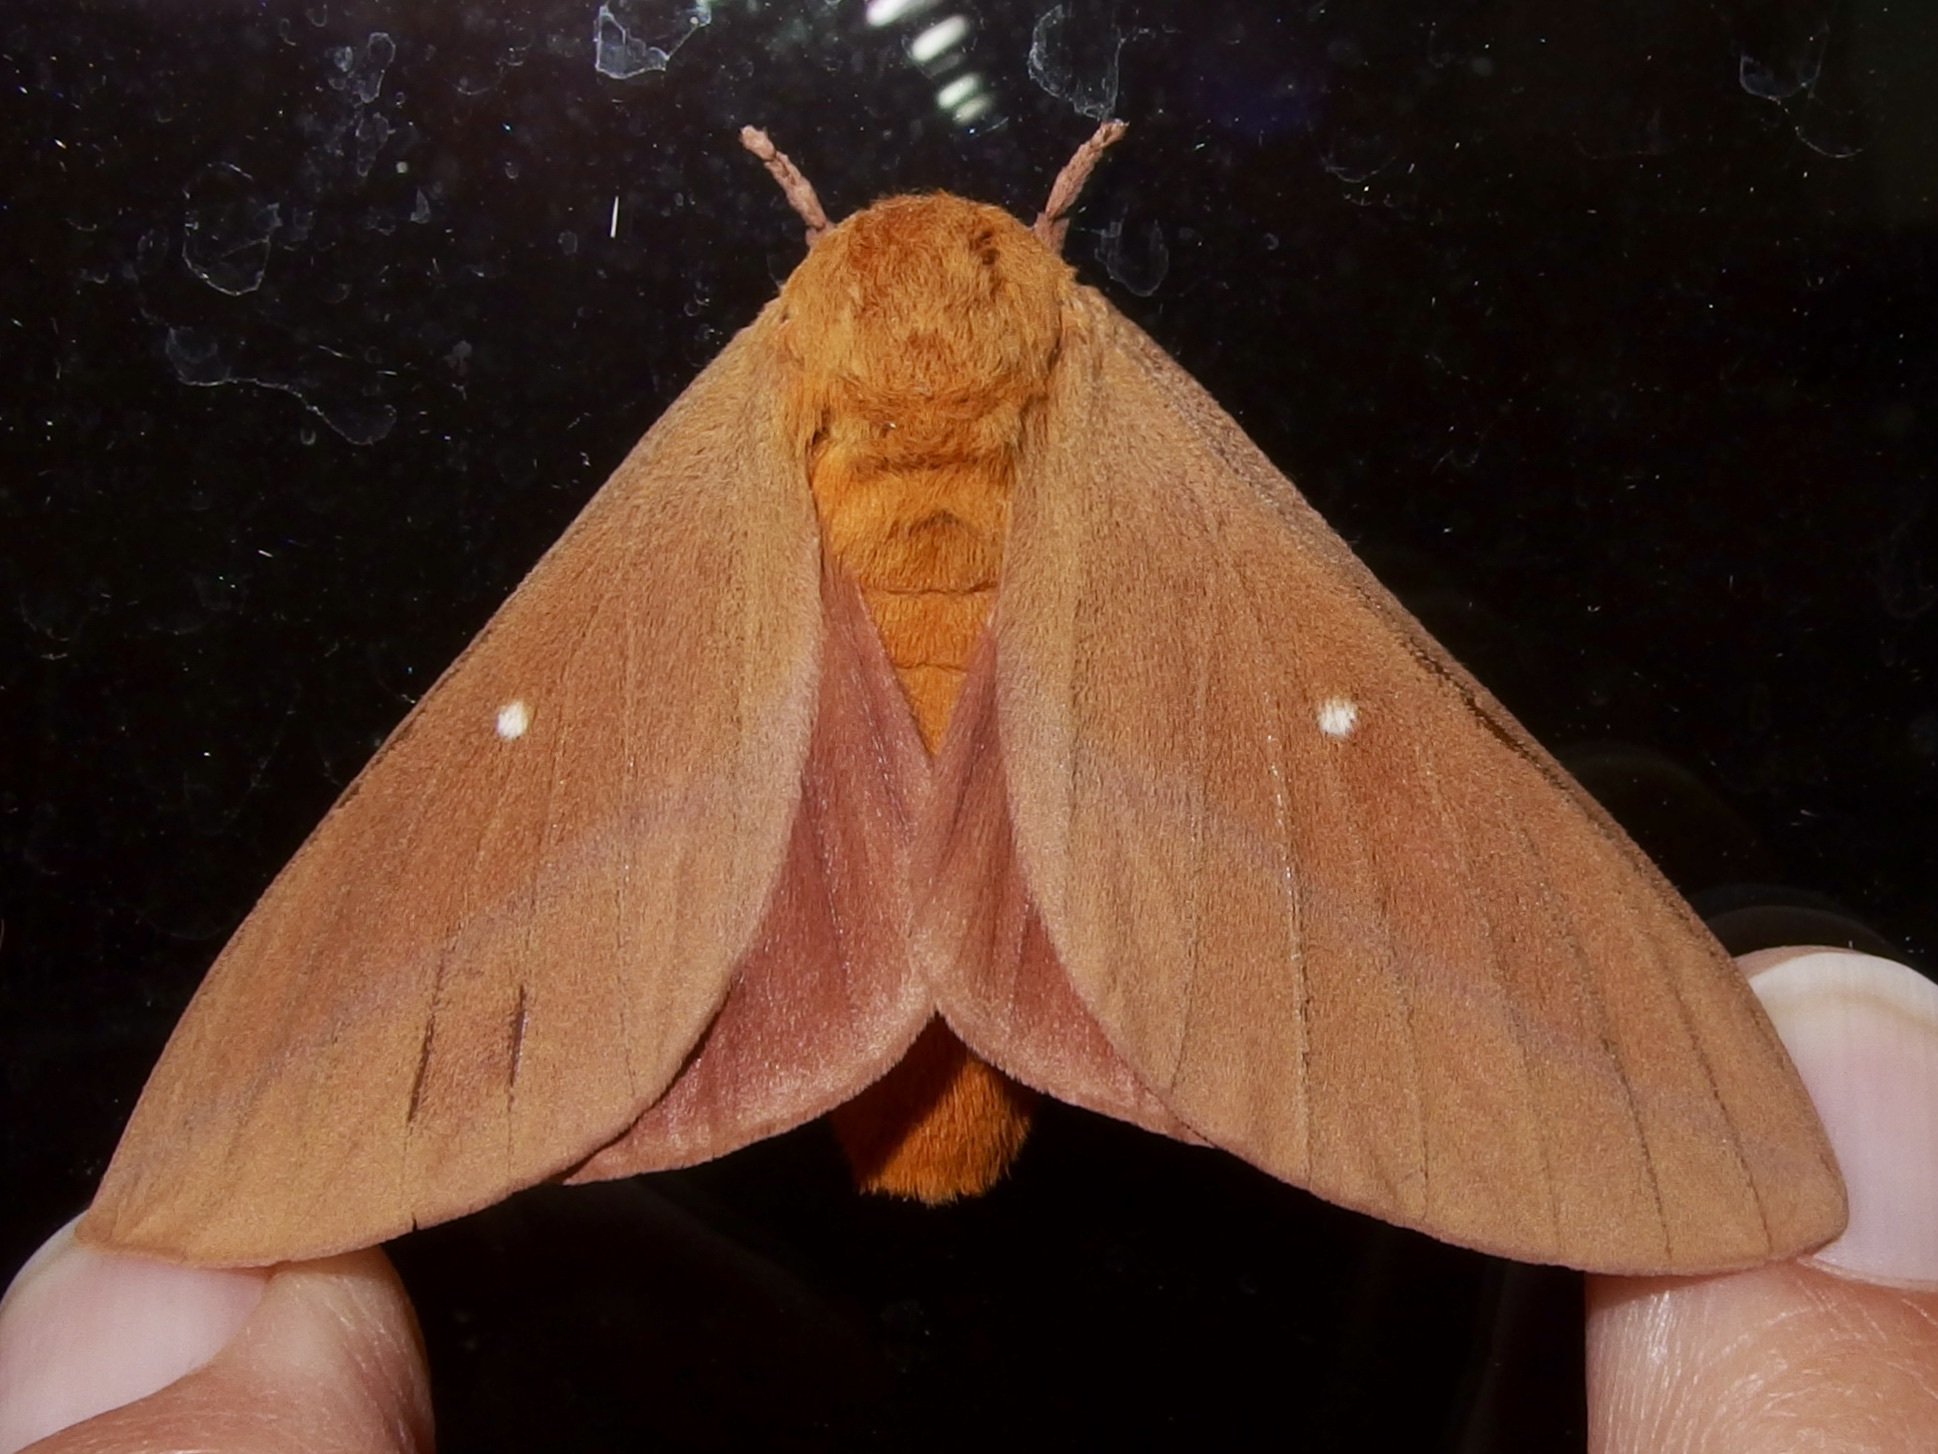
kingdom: Animalia
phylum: Arthropoda
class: Insecta
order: Lepidoptera
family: Saturniidae
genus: Anisota
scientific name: Anisota oslari
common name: Oslar's oakworm moth
